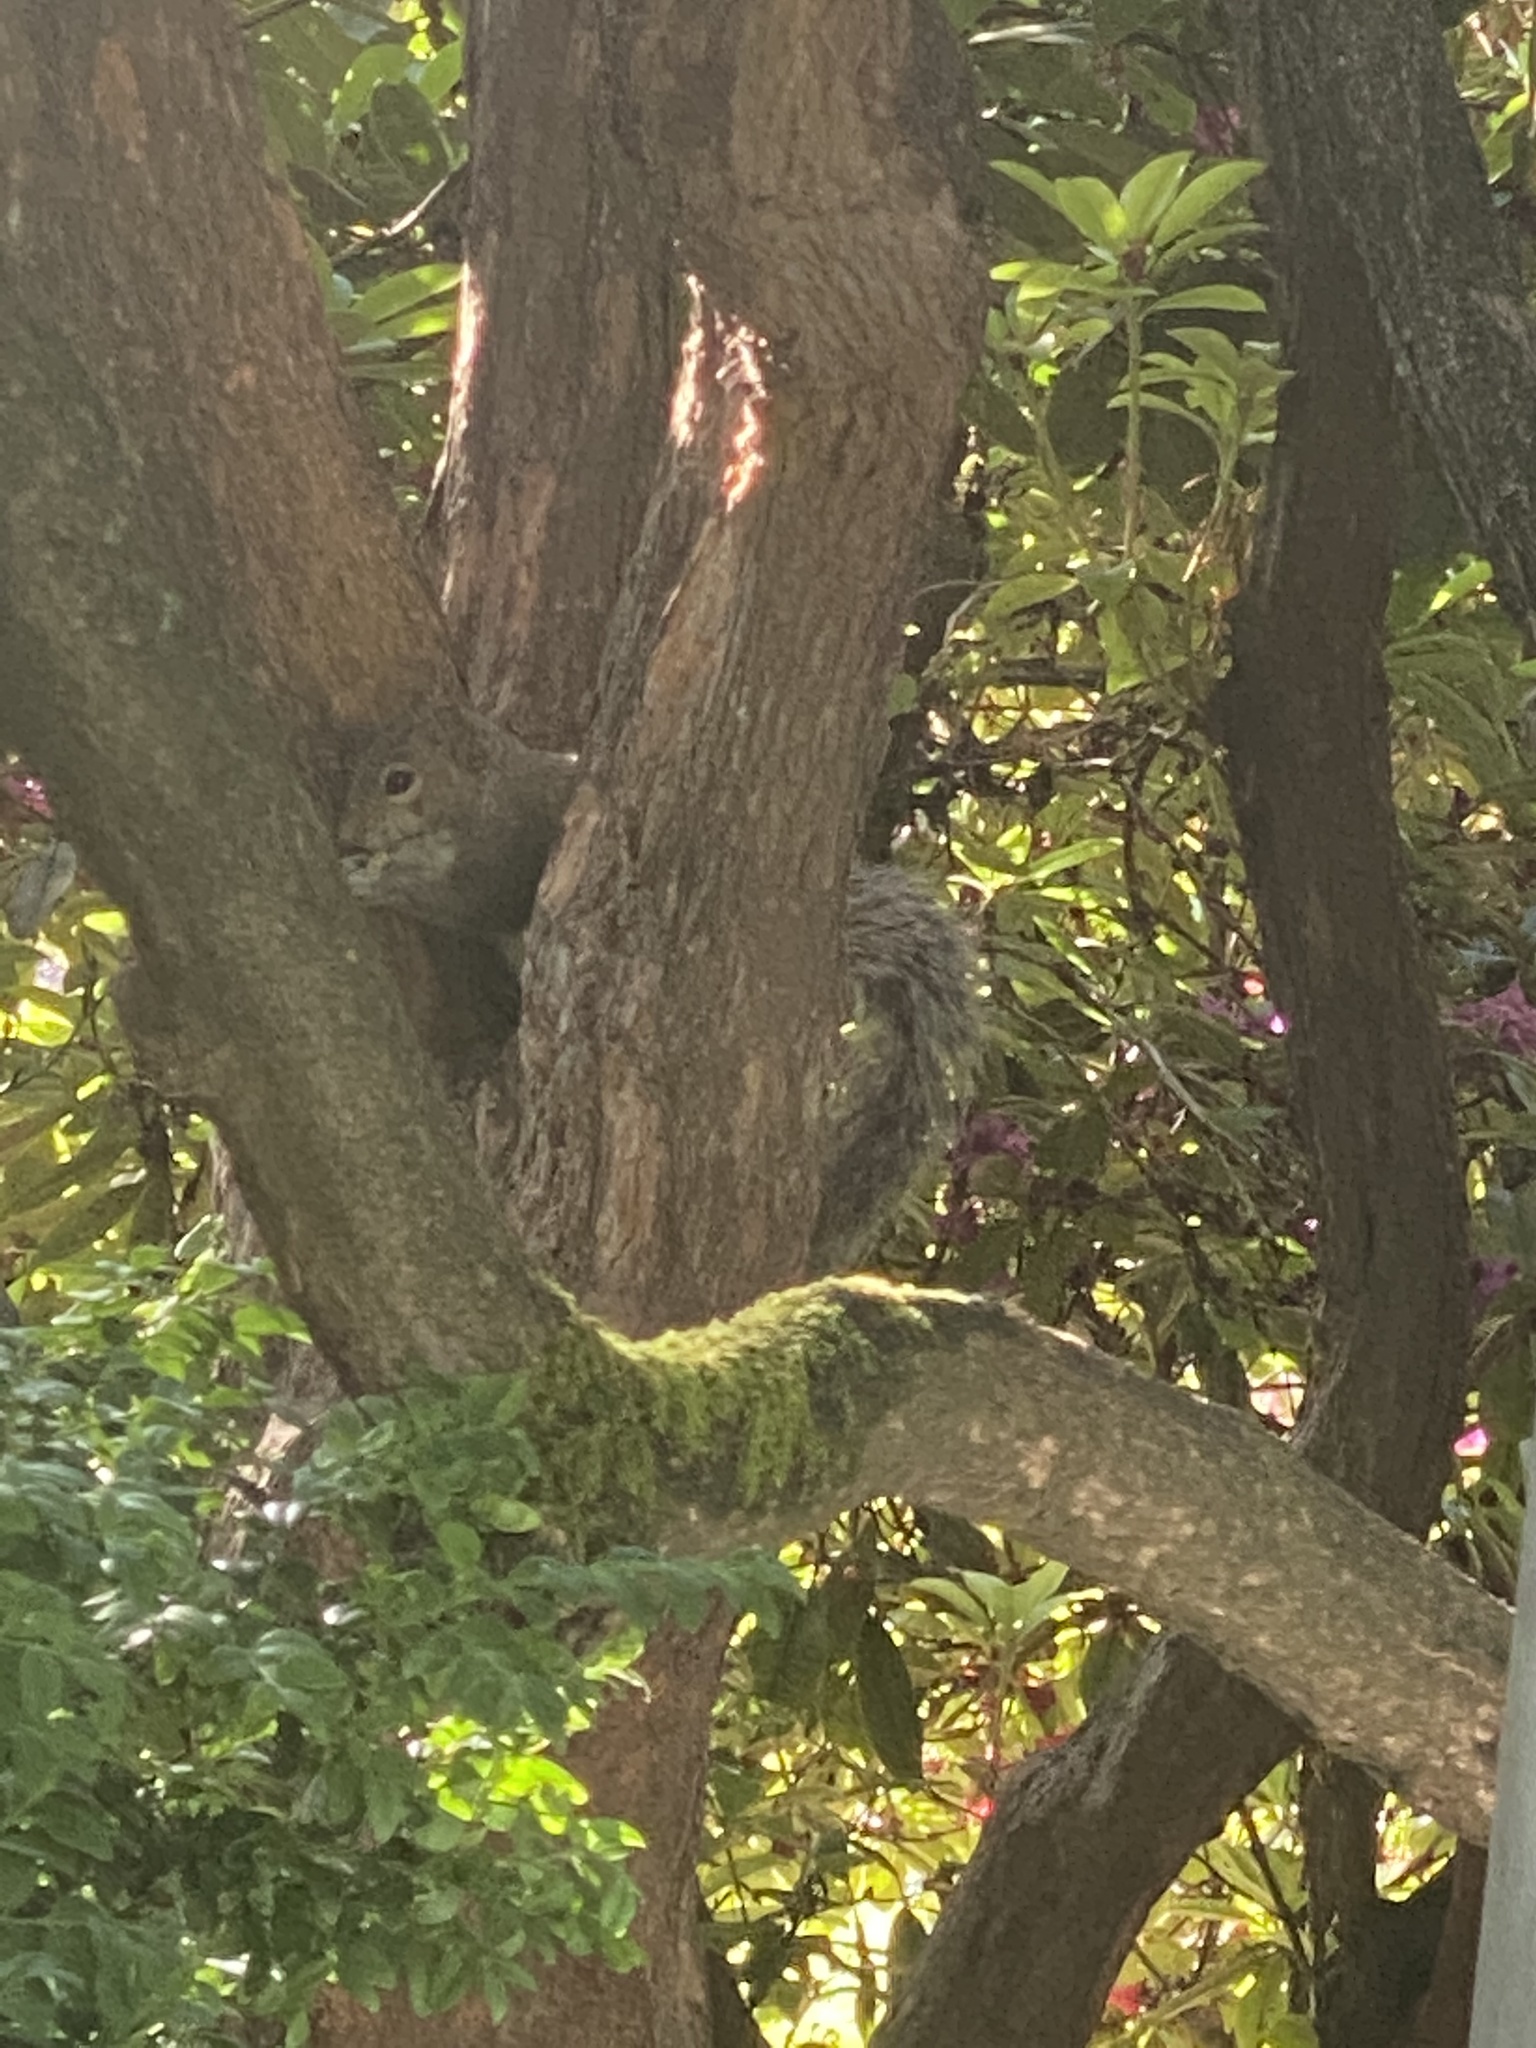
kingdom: Animalia
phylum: Chordata
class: Mammalia
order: Rodentia
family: Sciuridae
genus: Sciurus
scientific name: Sciurus carolinensis
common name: Eastern gray squirrel
